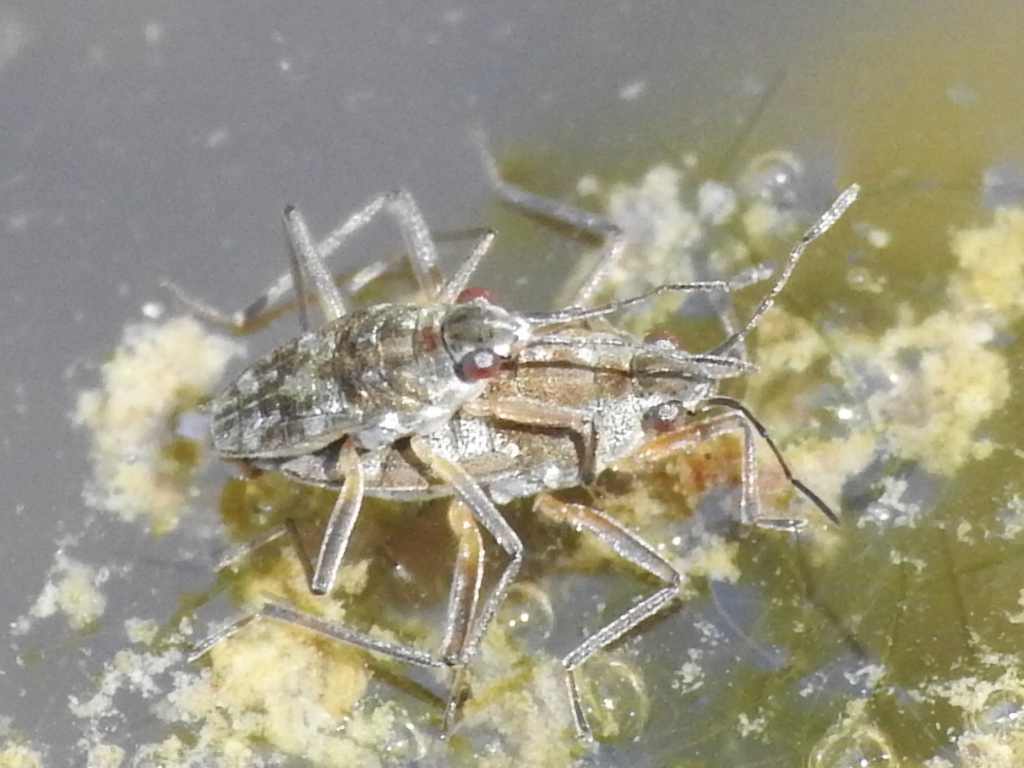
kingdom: Animalia
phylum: Arthropoda
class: Insecta
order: Hemiptera
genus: Kirkaldya
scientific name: Kirkaldya
